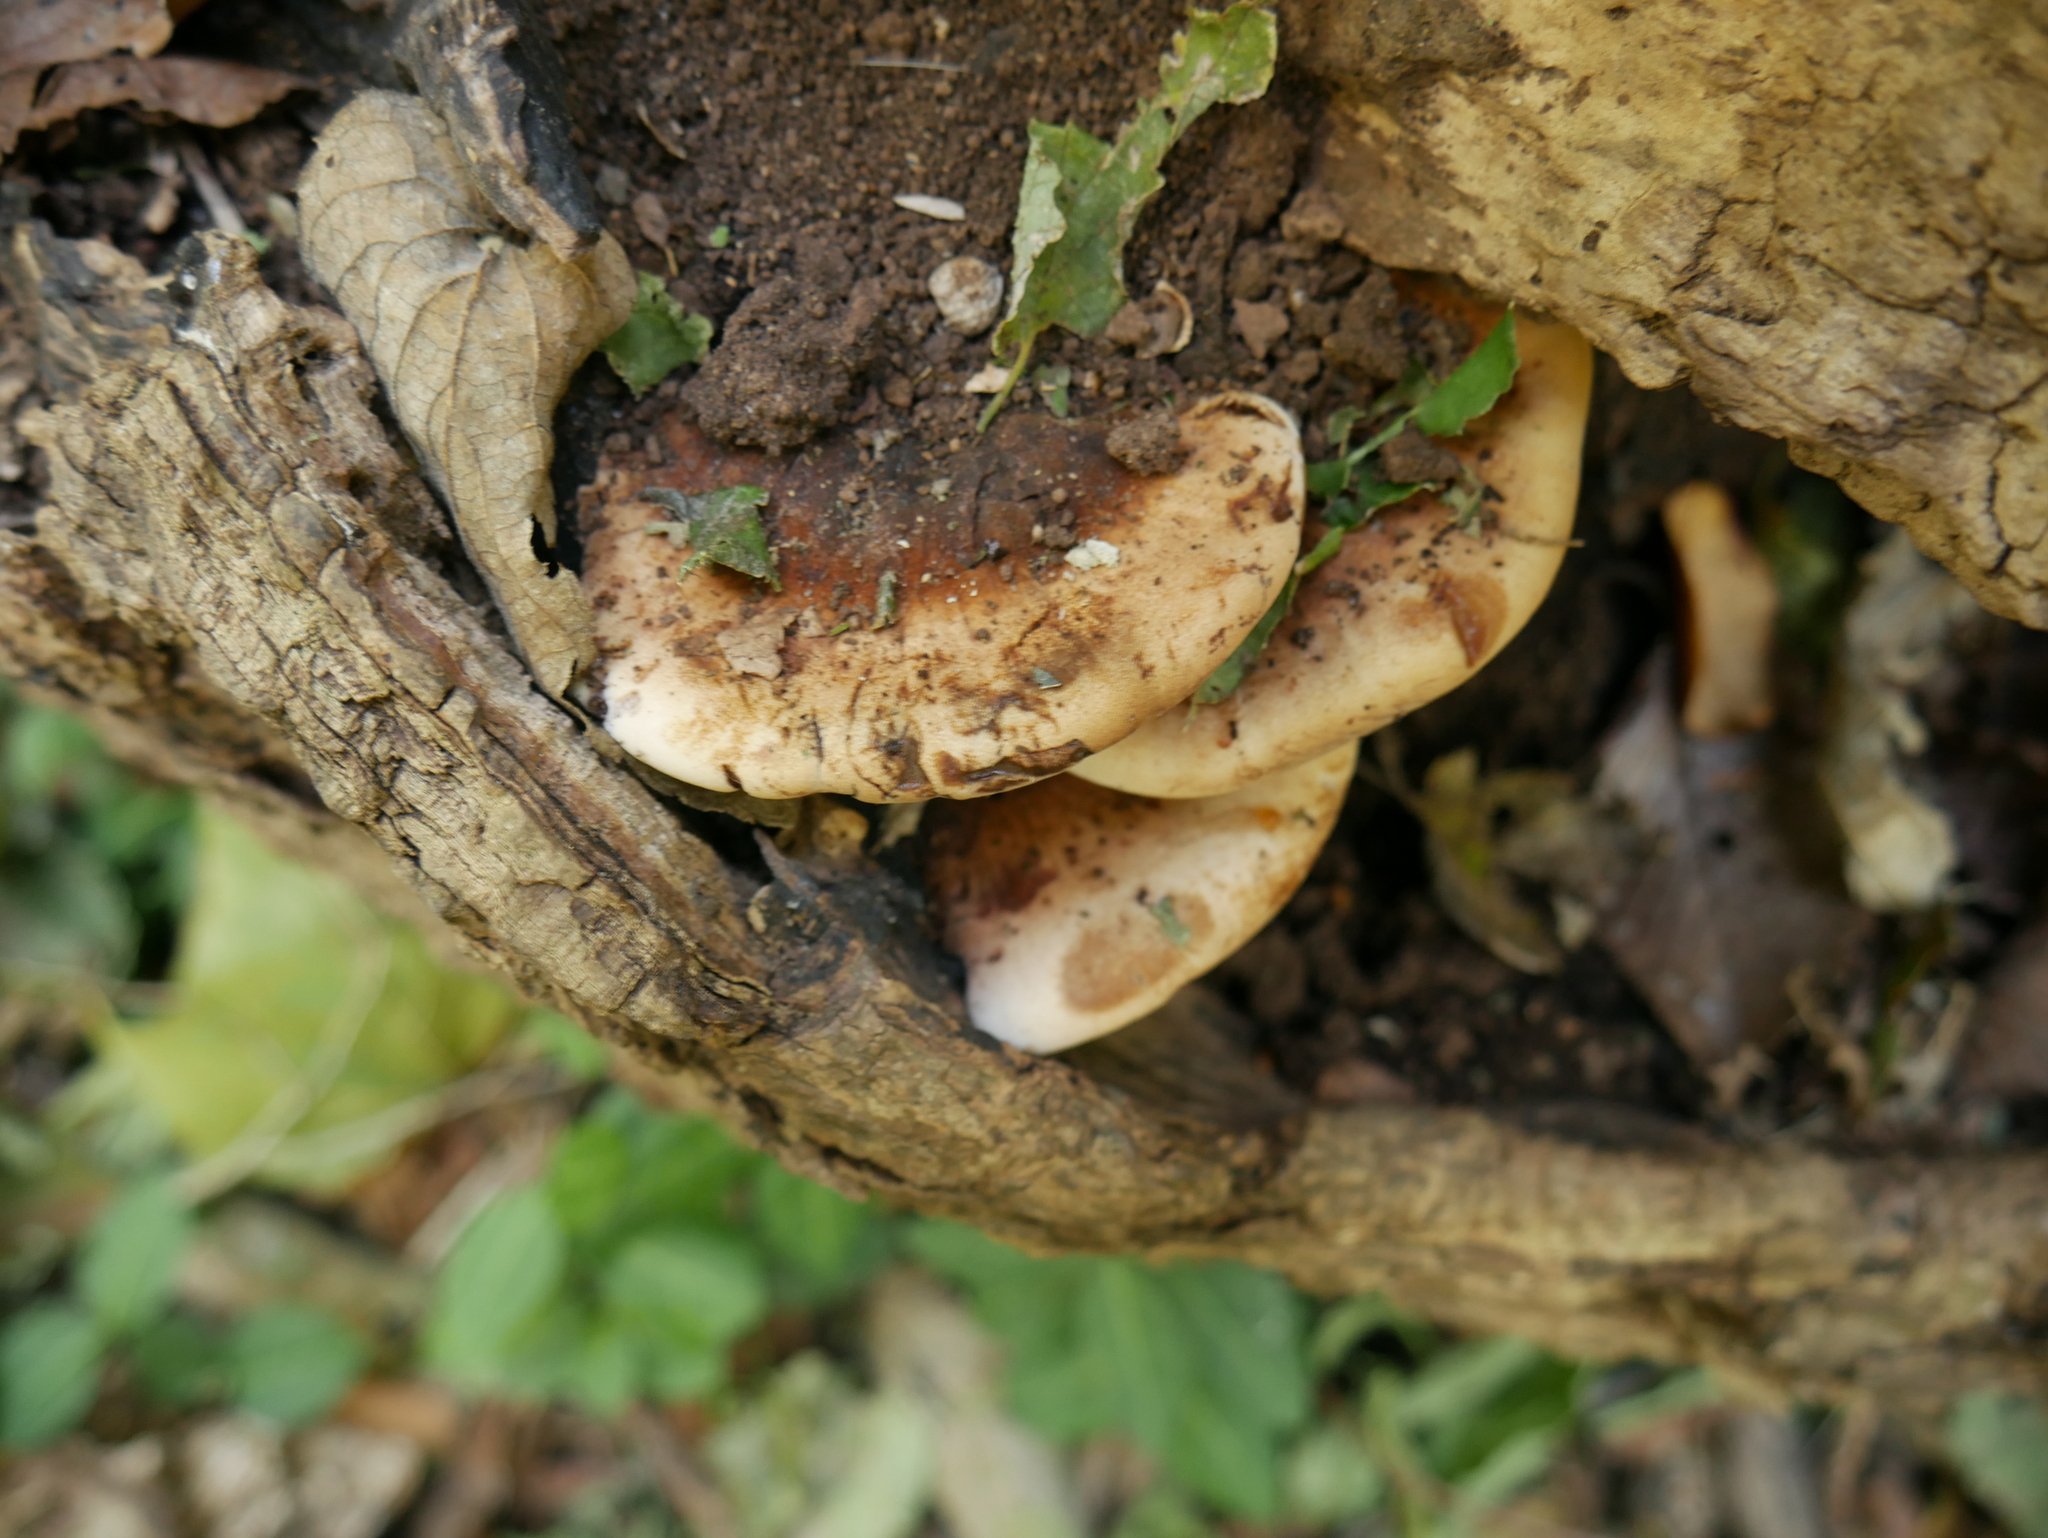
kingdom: Fungi
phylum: Basidiomycota
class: Agaricomycetes
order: Polyporales
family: Ischnodermataceae
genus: Ischnoderma
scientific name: Ischnoderma resinosum
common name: Resinous polypore
